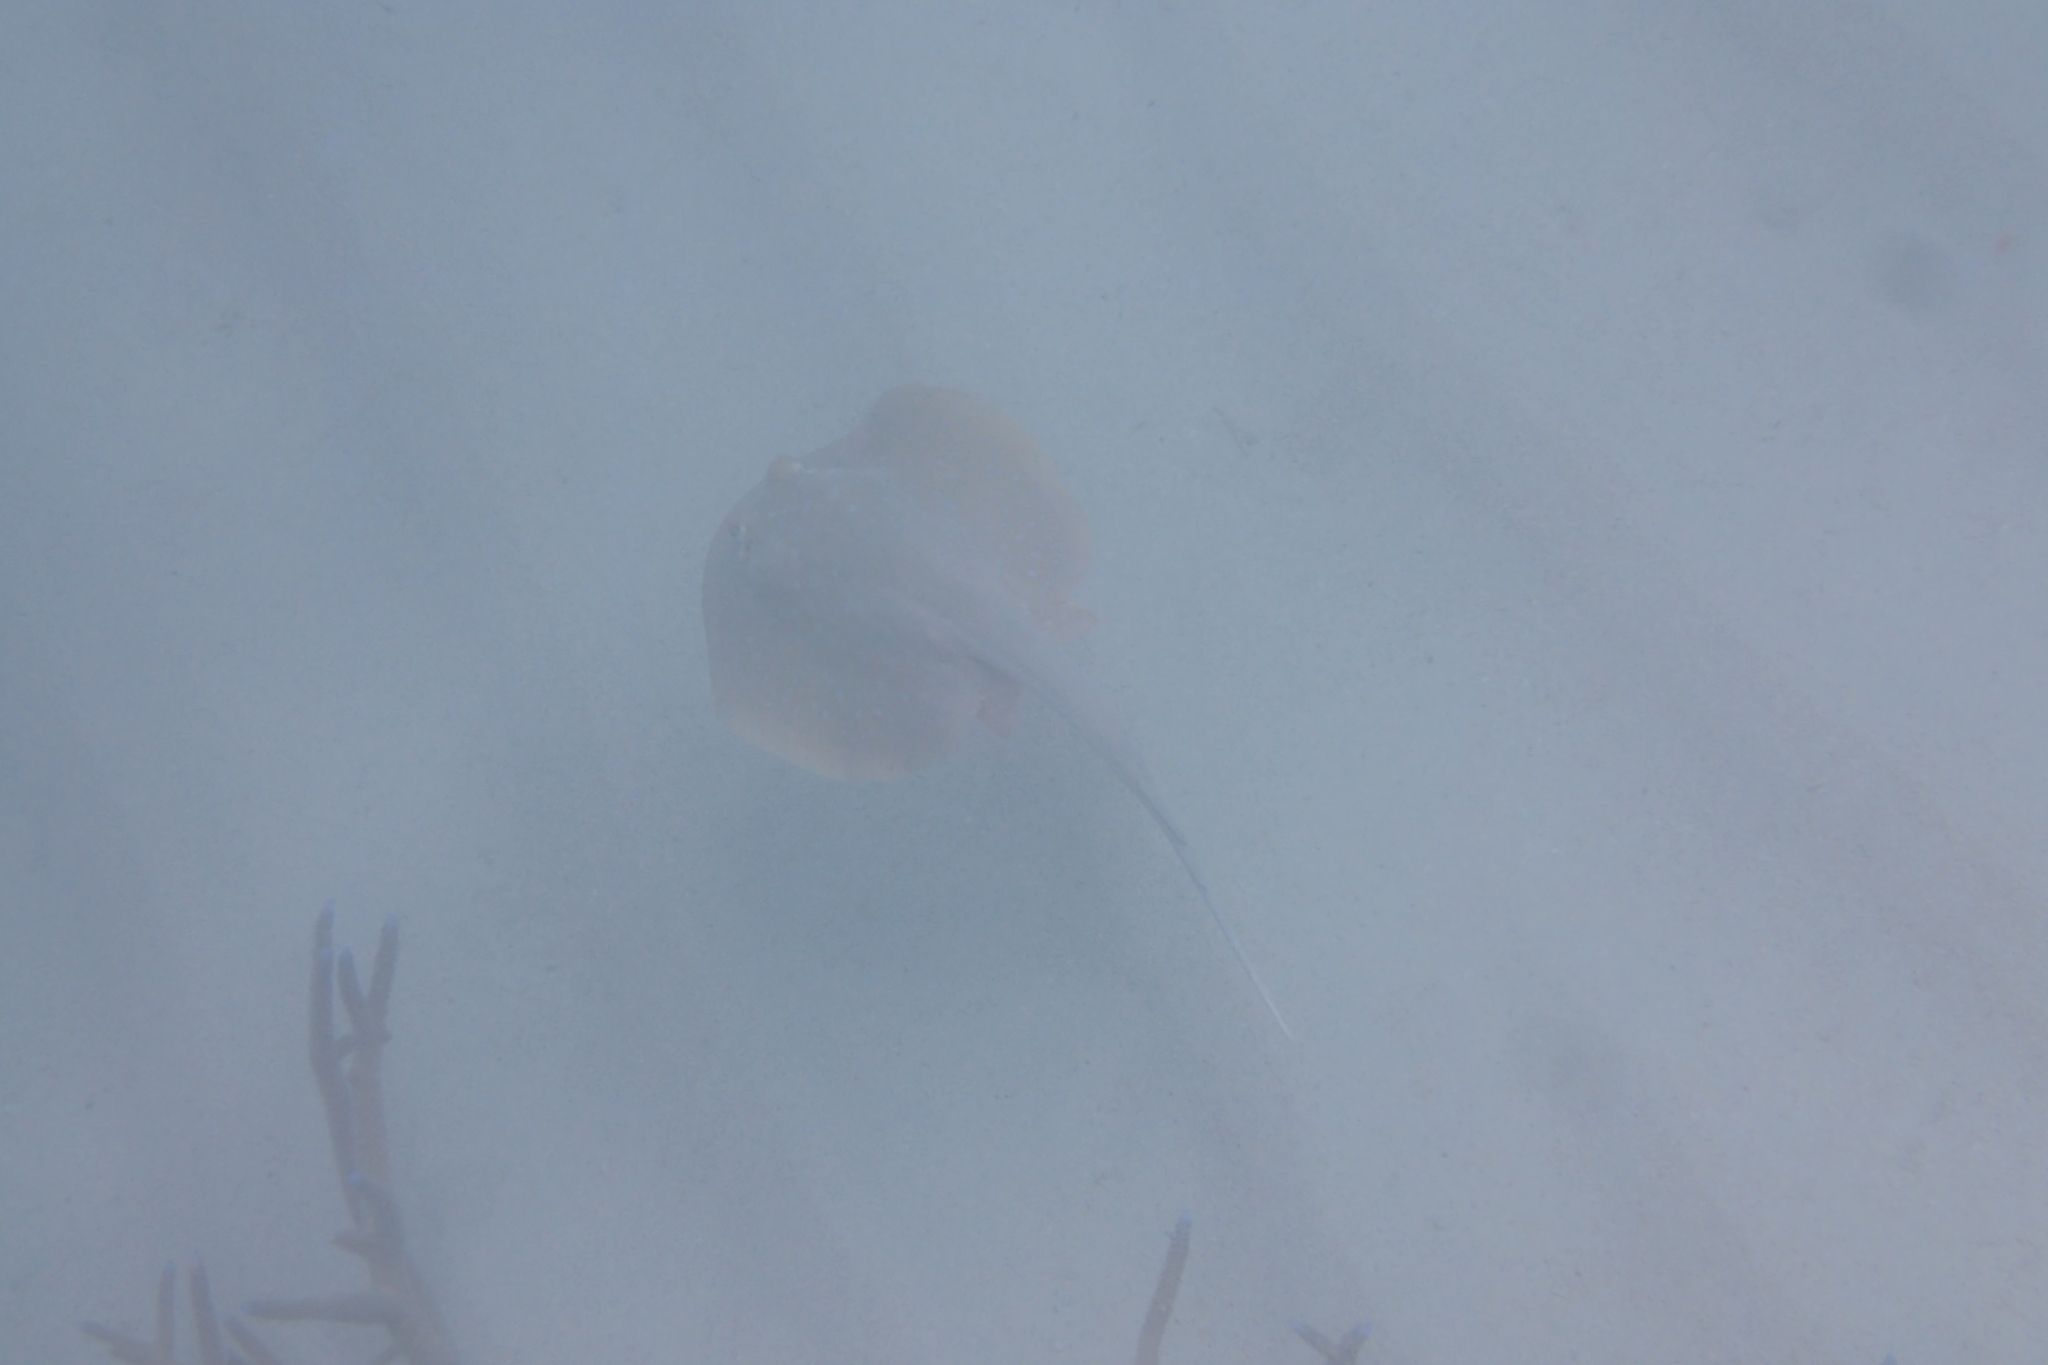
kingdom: Animalia
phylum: Chordata
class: Elasmobranchii
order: Myliobatiformes
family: Dasyatidae
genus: Taeniura
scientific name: Taeniura lymma
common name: Bluespotted ribbontail ray
